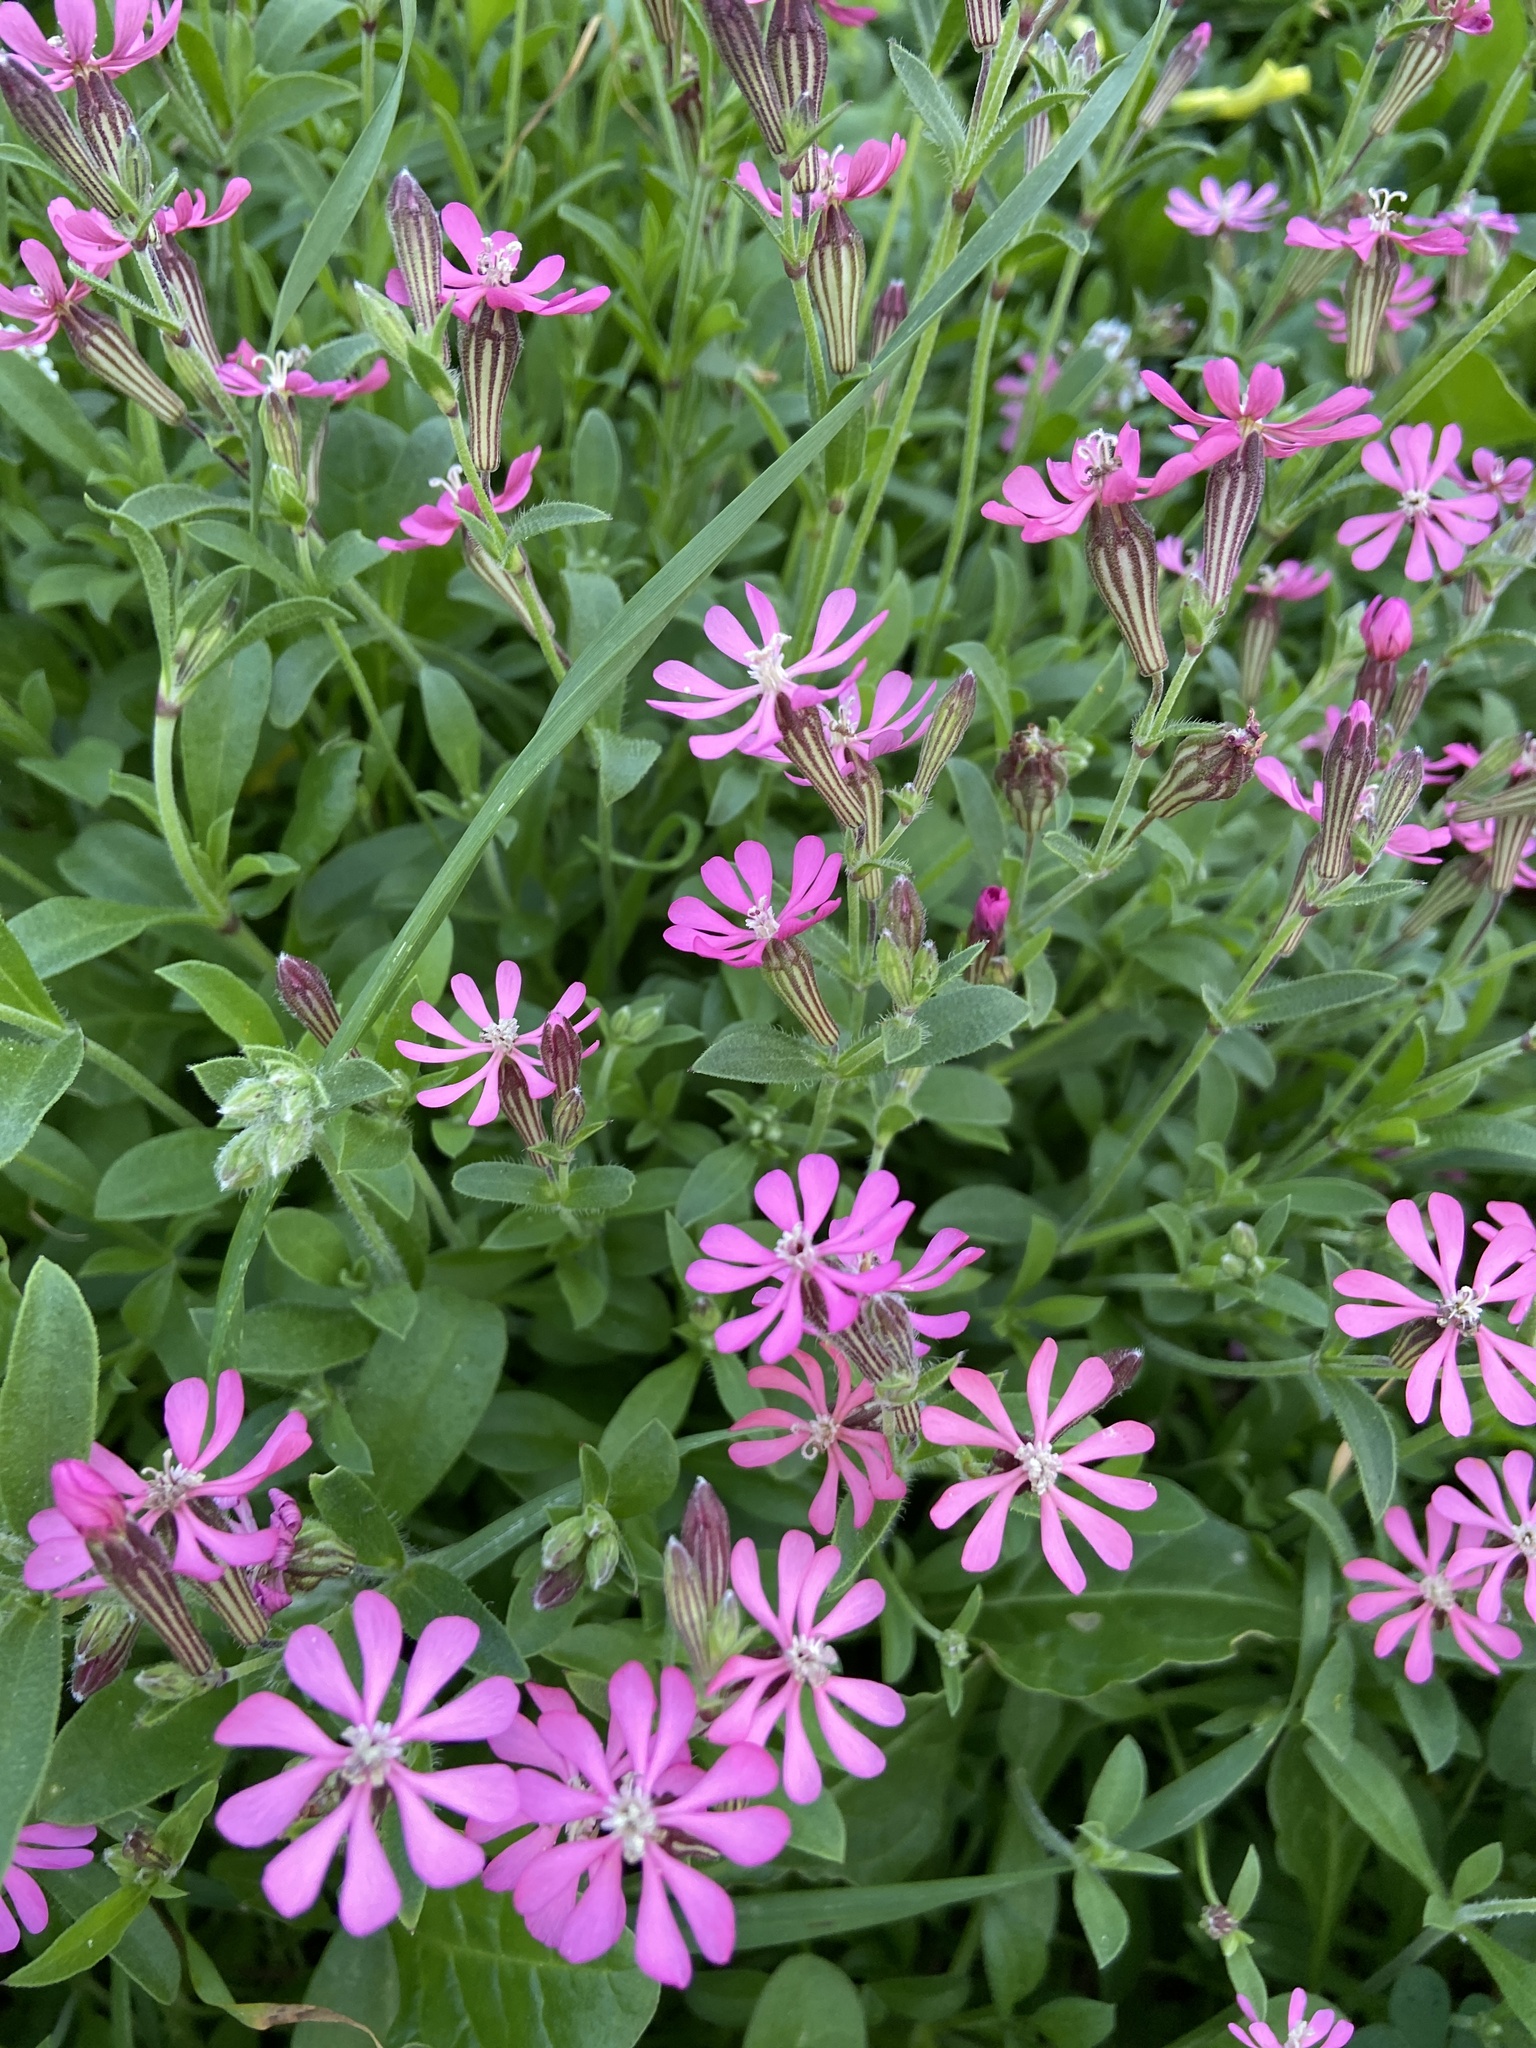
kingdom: Plantae
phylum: Tracheophyta
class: Magnoliopsida
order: Caryophyllales
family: Caryophyllaceae
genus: Silene
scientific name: Silene colorata
